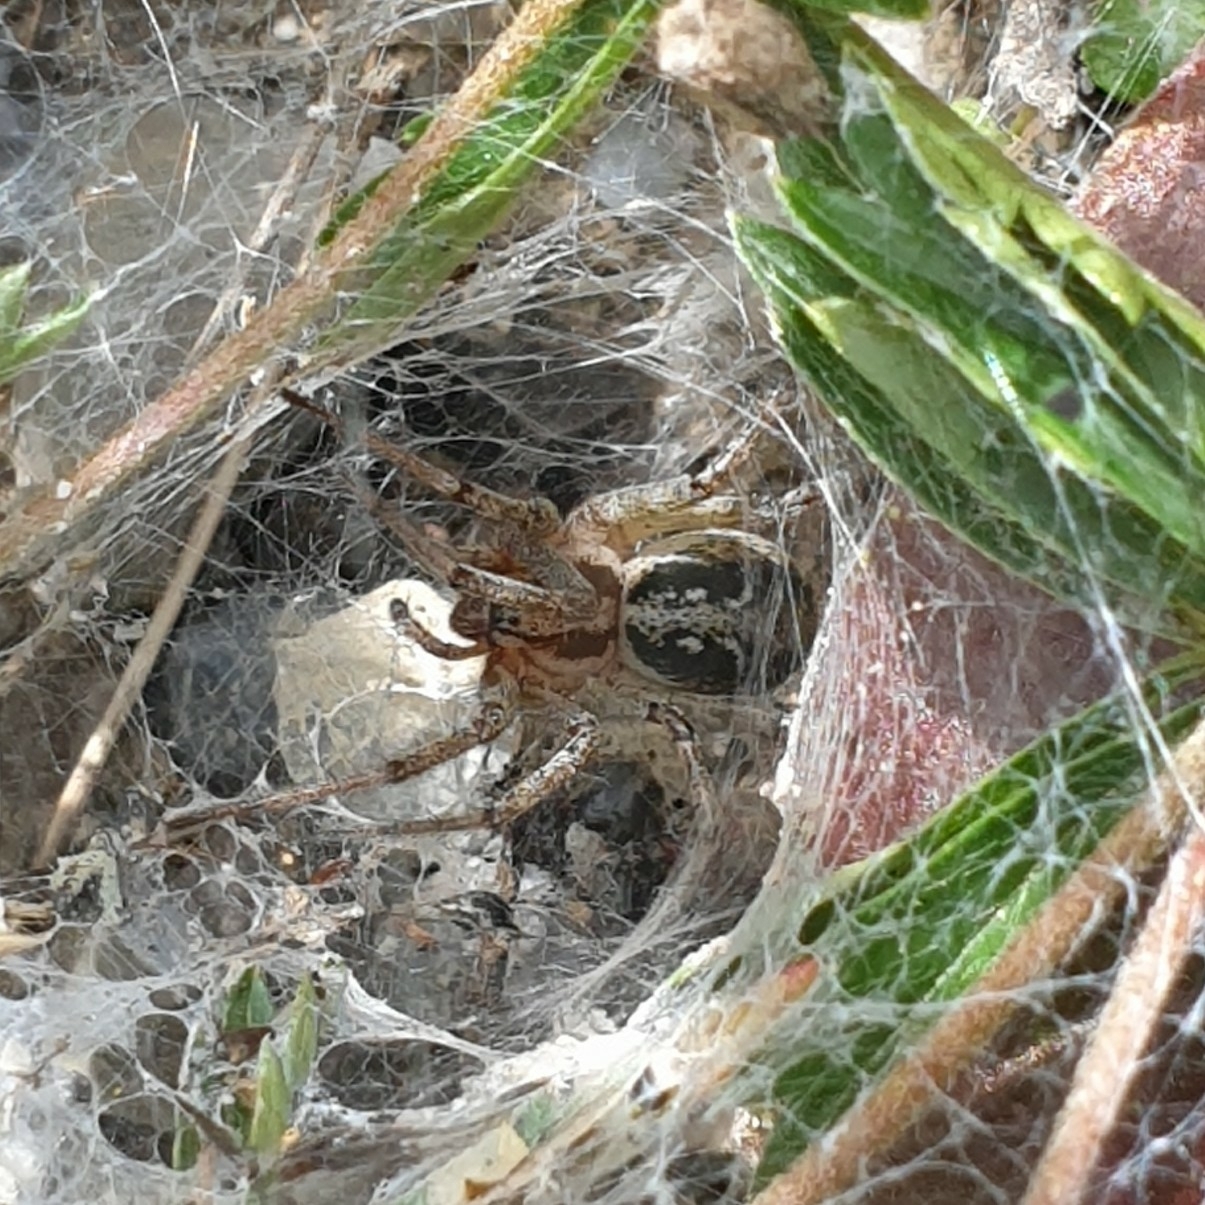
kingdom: Animalia
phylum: Arthropoda
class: Arachnida
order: Araneae
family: Agelenidae
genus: Agelena
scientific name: Agelena labyrinthica
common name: Labyrinth spider
